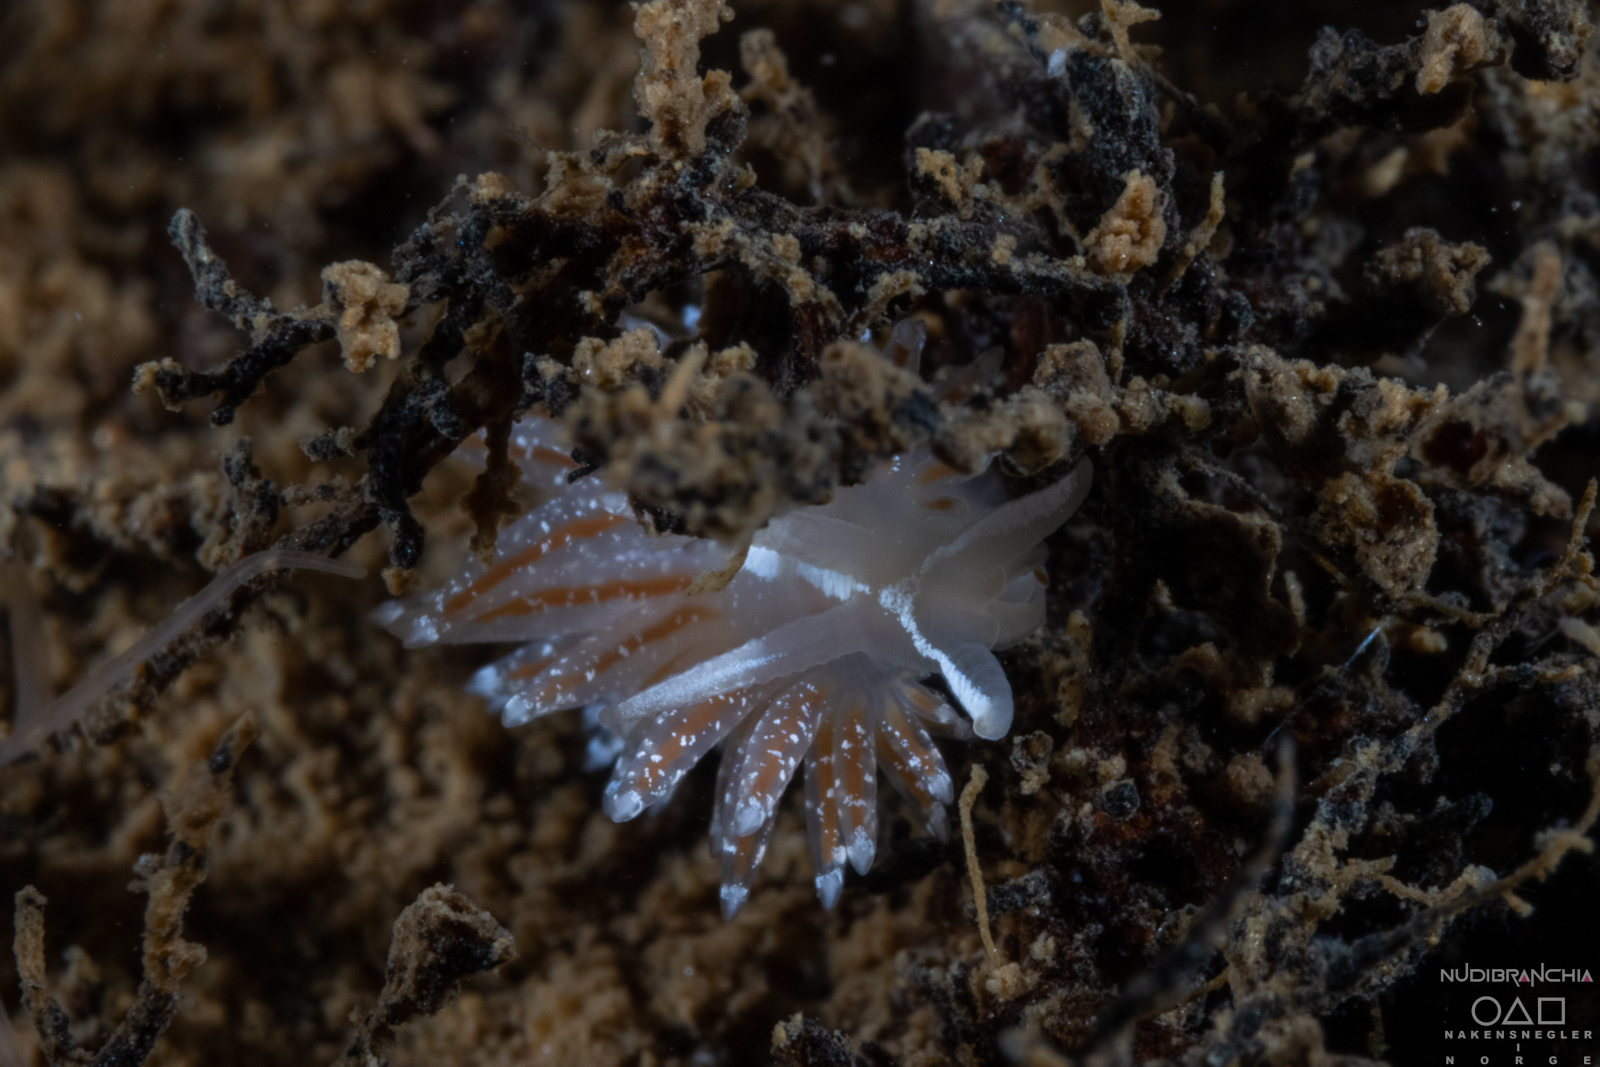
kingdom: Animalia
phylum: Mollusca
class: Gastropoda
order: Nudibranchia
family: Coryphellidae
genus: Coryphella
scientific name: Coryphella orjani
